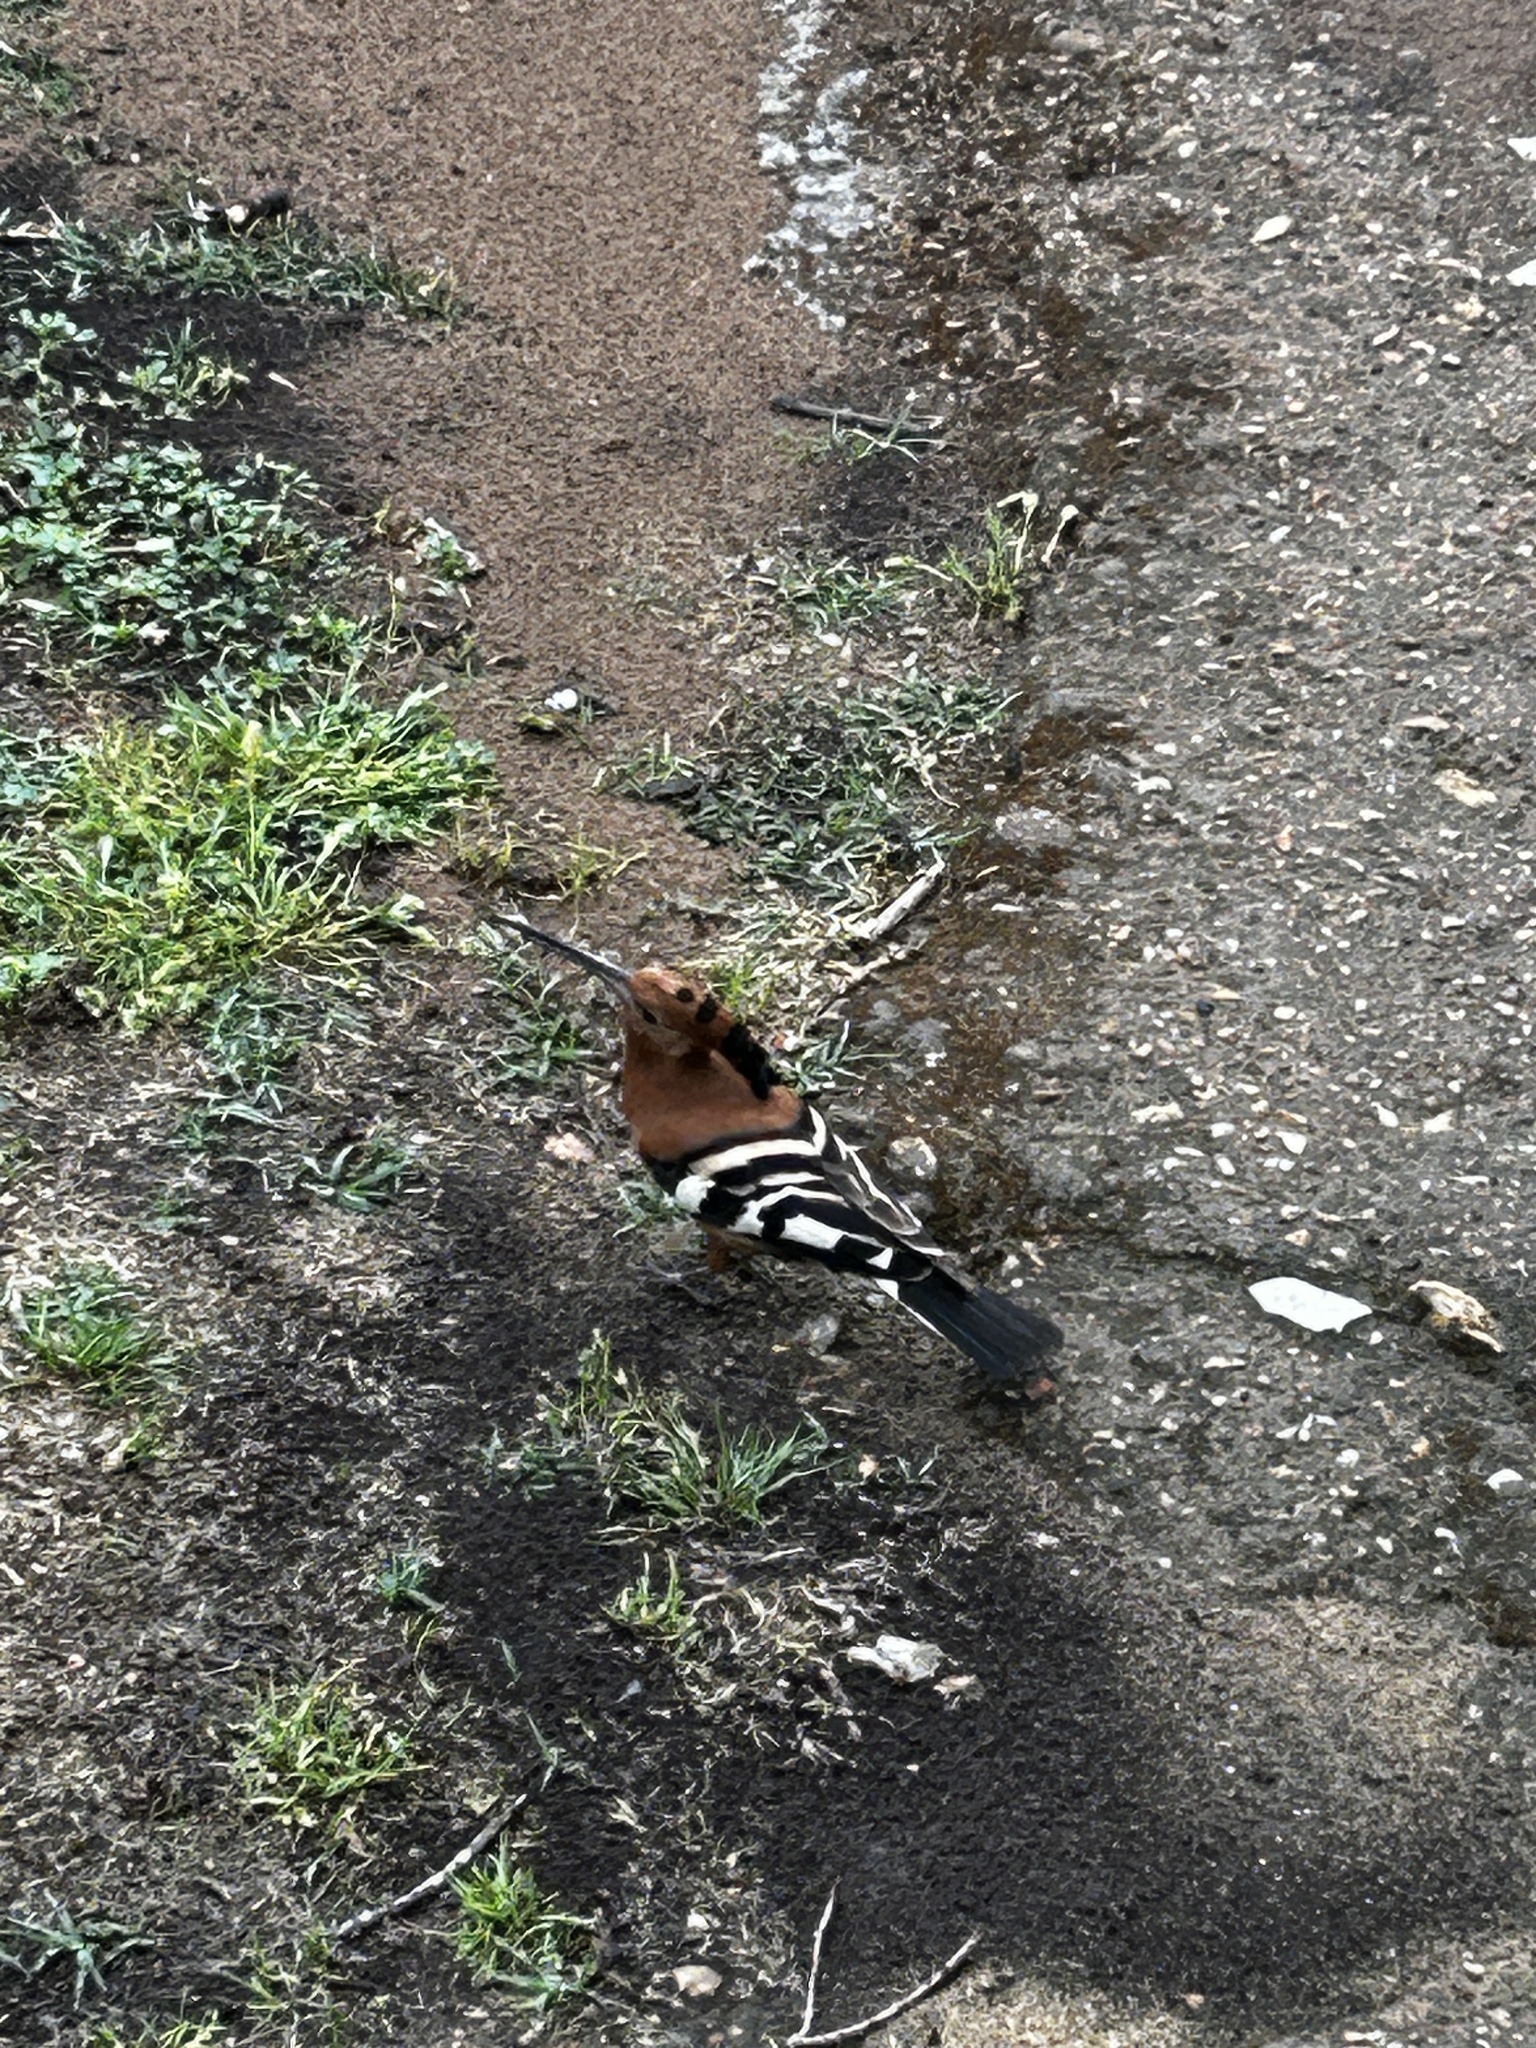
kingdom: Animalia
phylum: Chordata
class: Aves
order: Bucerotiformes
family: Upupidae
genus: Upupa
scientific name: Upupa africana
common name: African hoopoe
